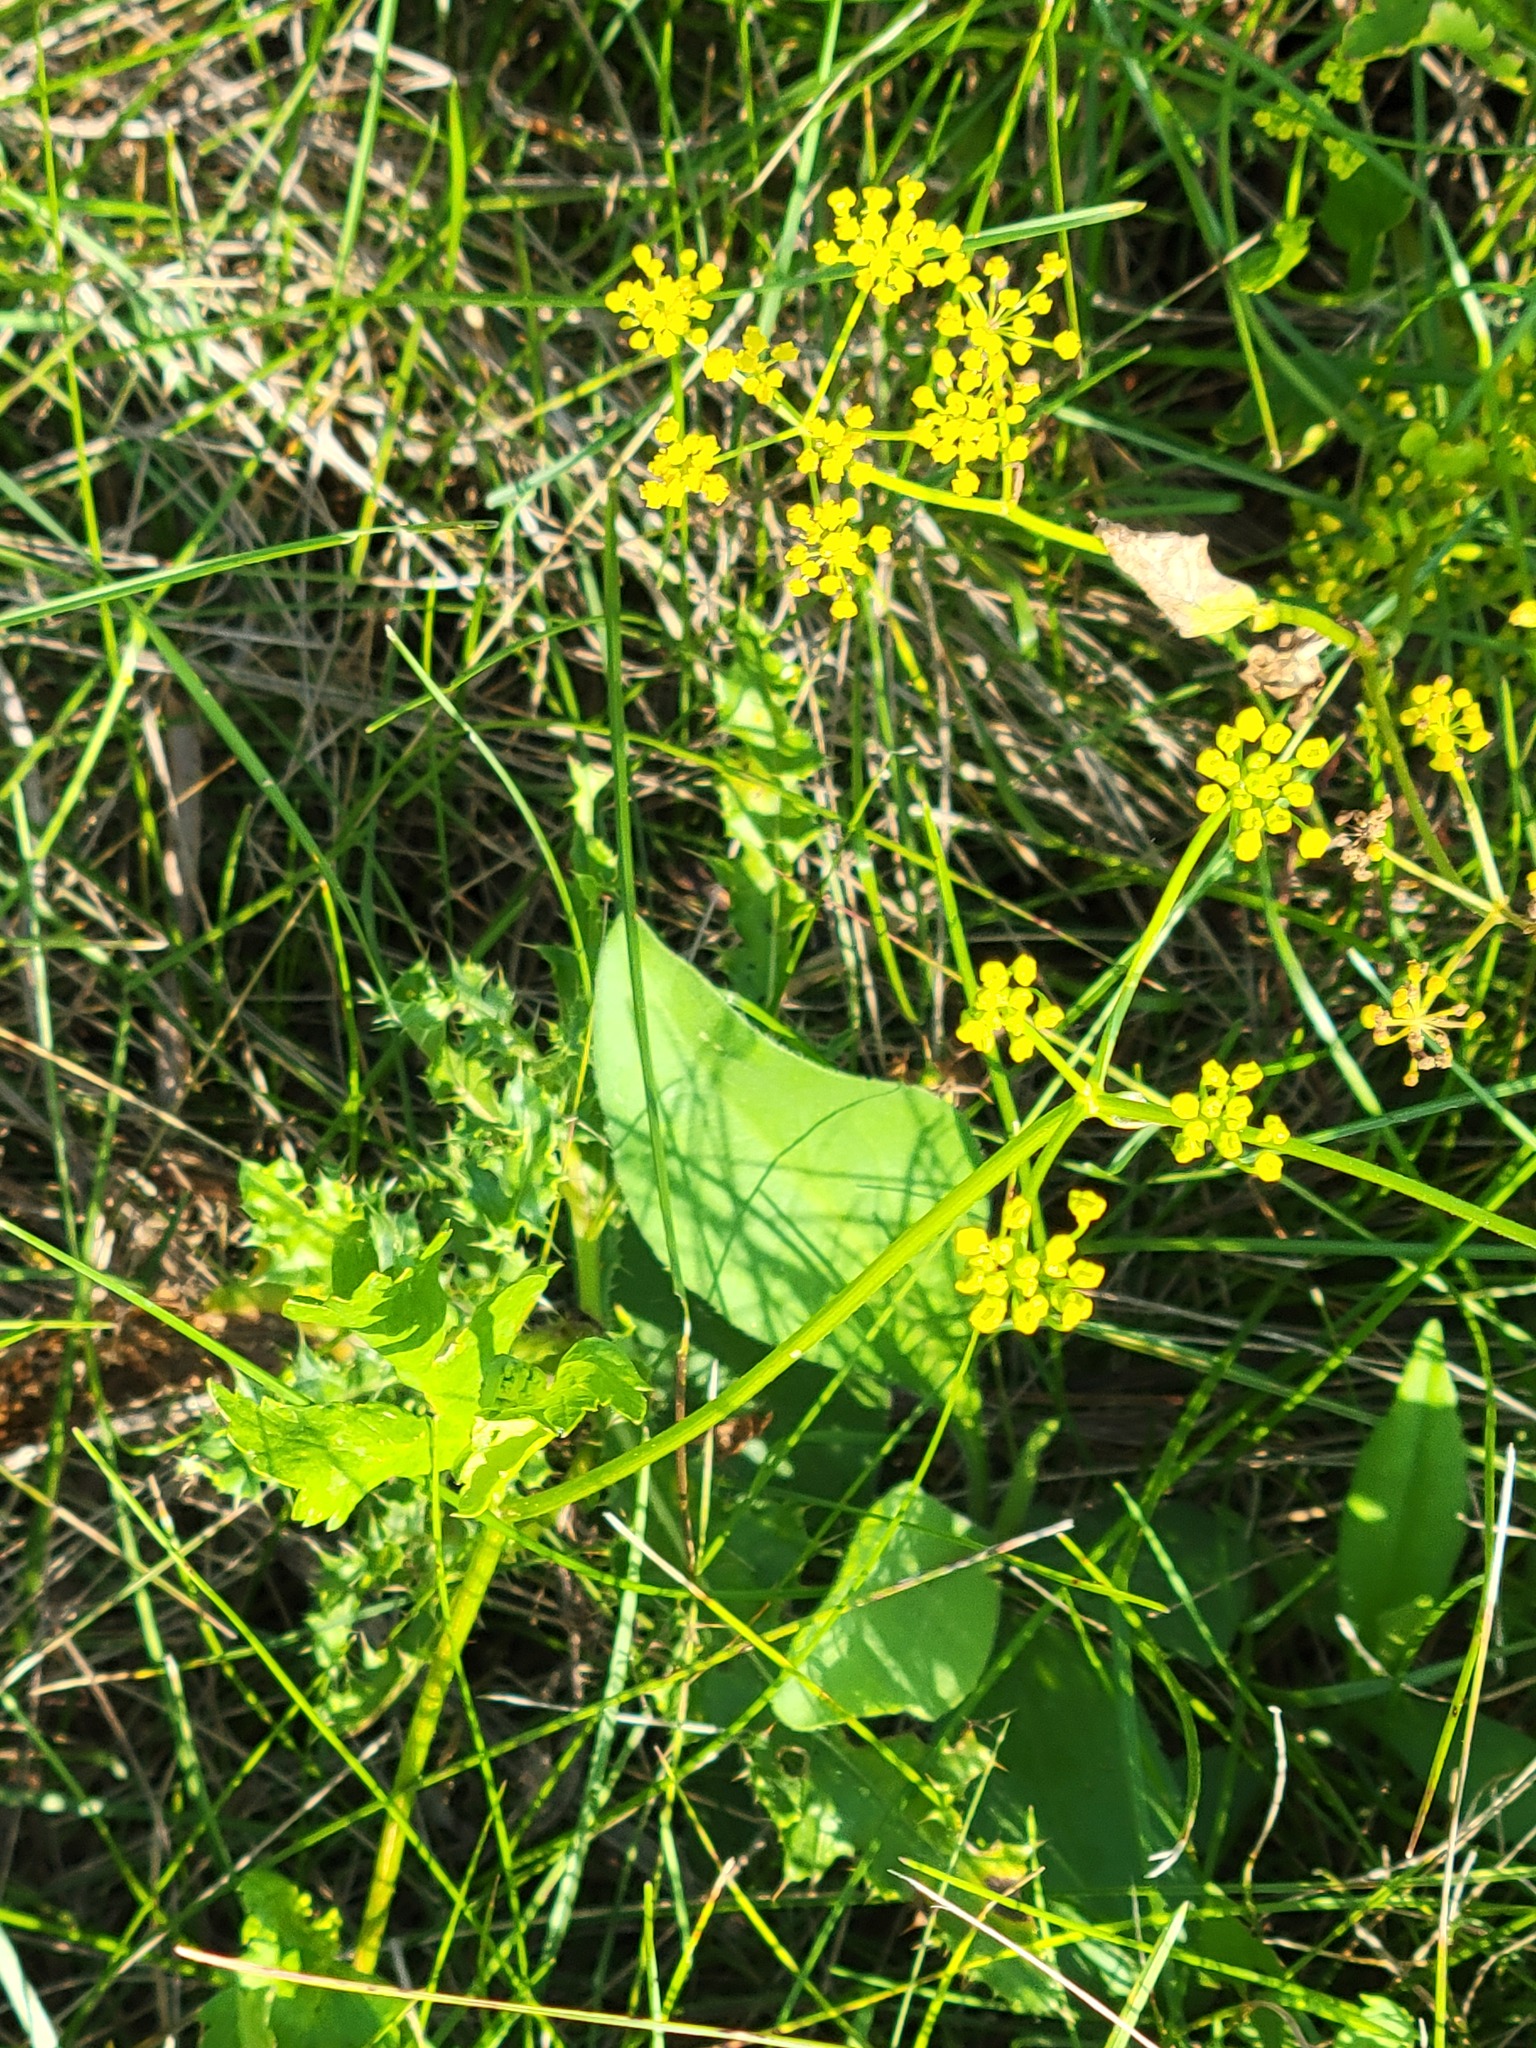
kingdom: Plantae
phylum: Tracheophyta
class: Magnoliopsida
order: Apiales
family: Apiaceae
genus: Pastinaca
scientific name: Pastinaca sativa
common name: Wild parsnip
